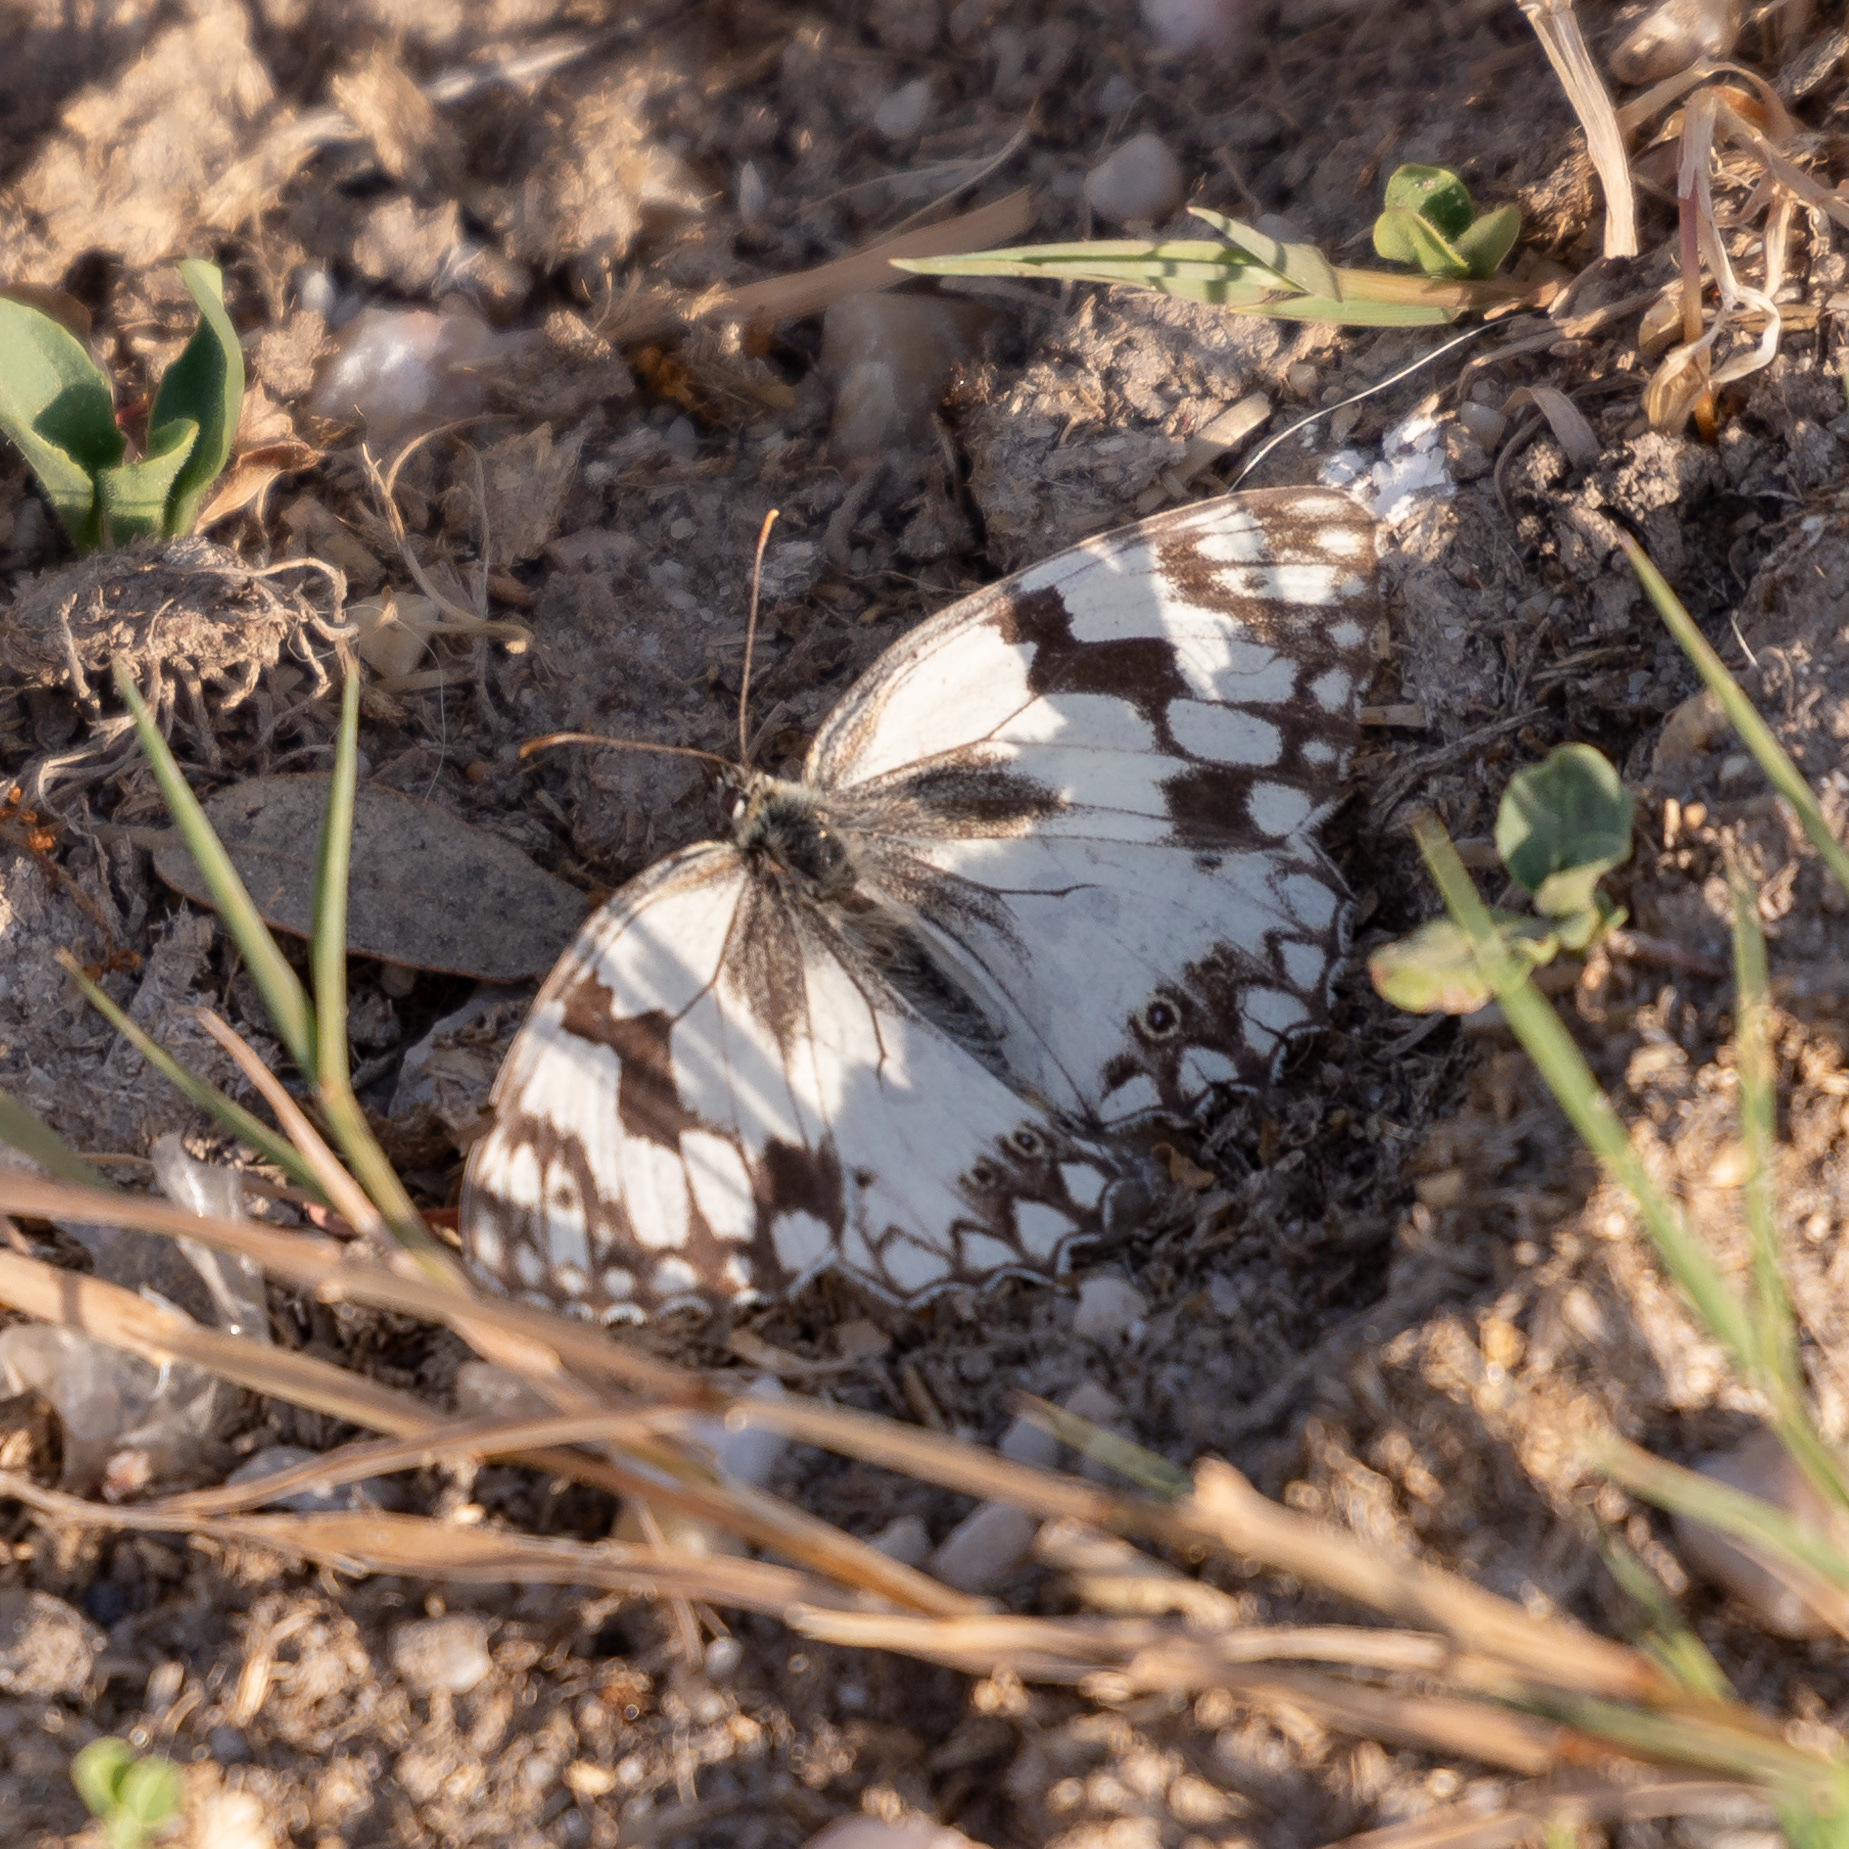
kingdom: Animalia
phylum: Arthropoda
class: Insecta
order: Lepidoptera
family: Nymphalidae
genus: Melanargia
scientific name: Melanargia lachesis
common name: Iberian marbled white
